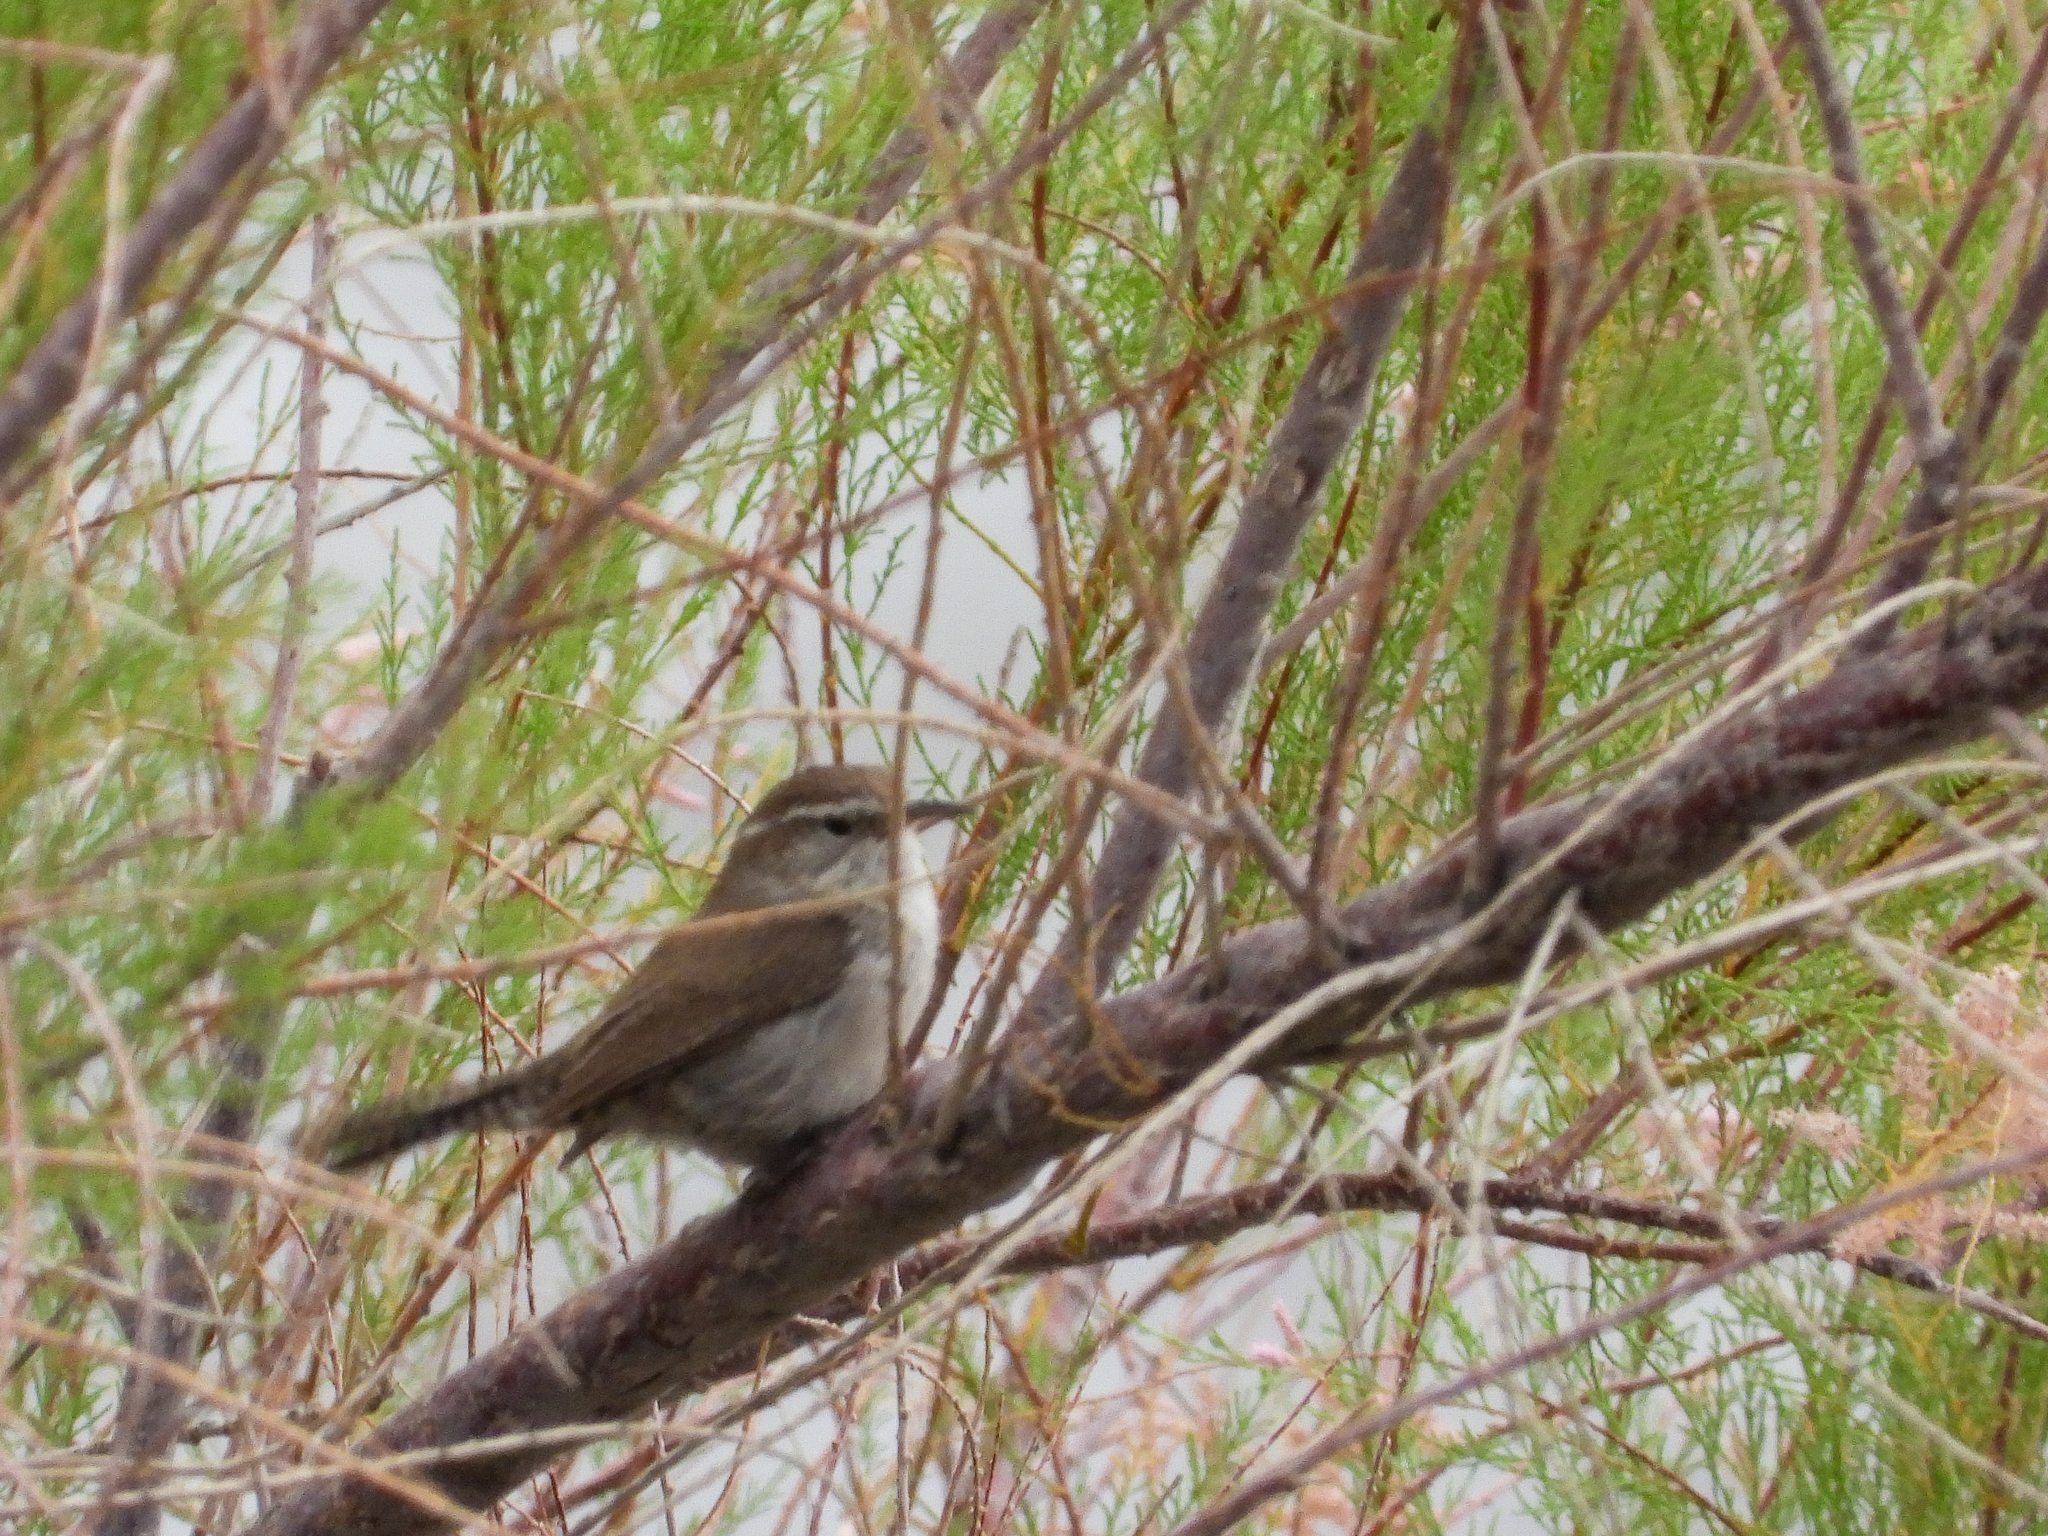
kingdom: Animalia
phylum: Chordata
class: Aves
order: Passeriformes
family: Troglodytidae
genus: Thryomanes
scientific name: Thryomanes bewickii
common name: Bewick's wren
